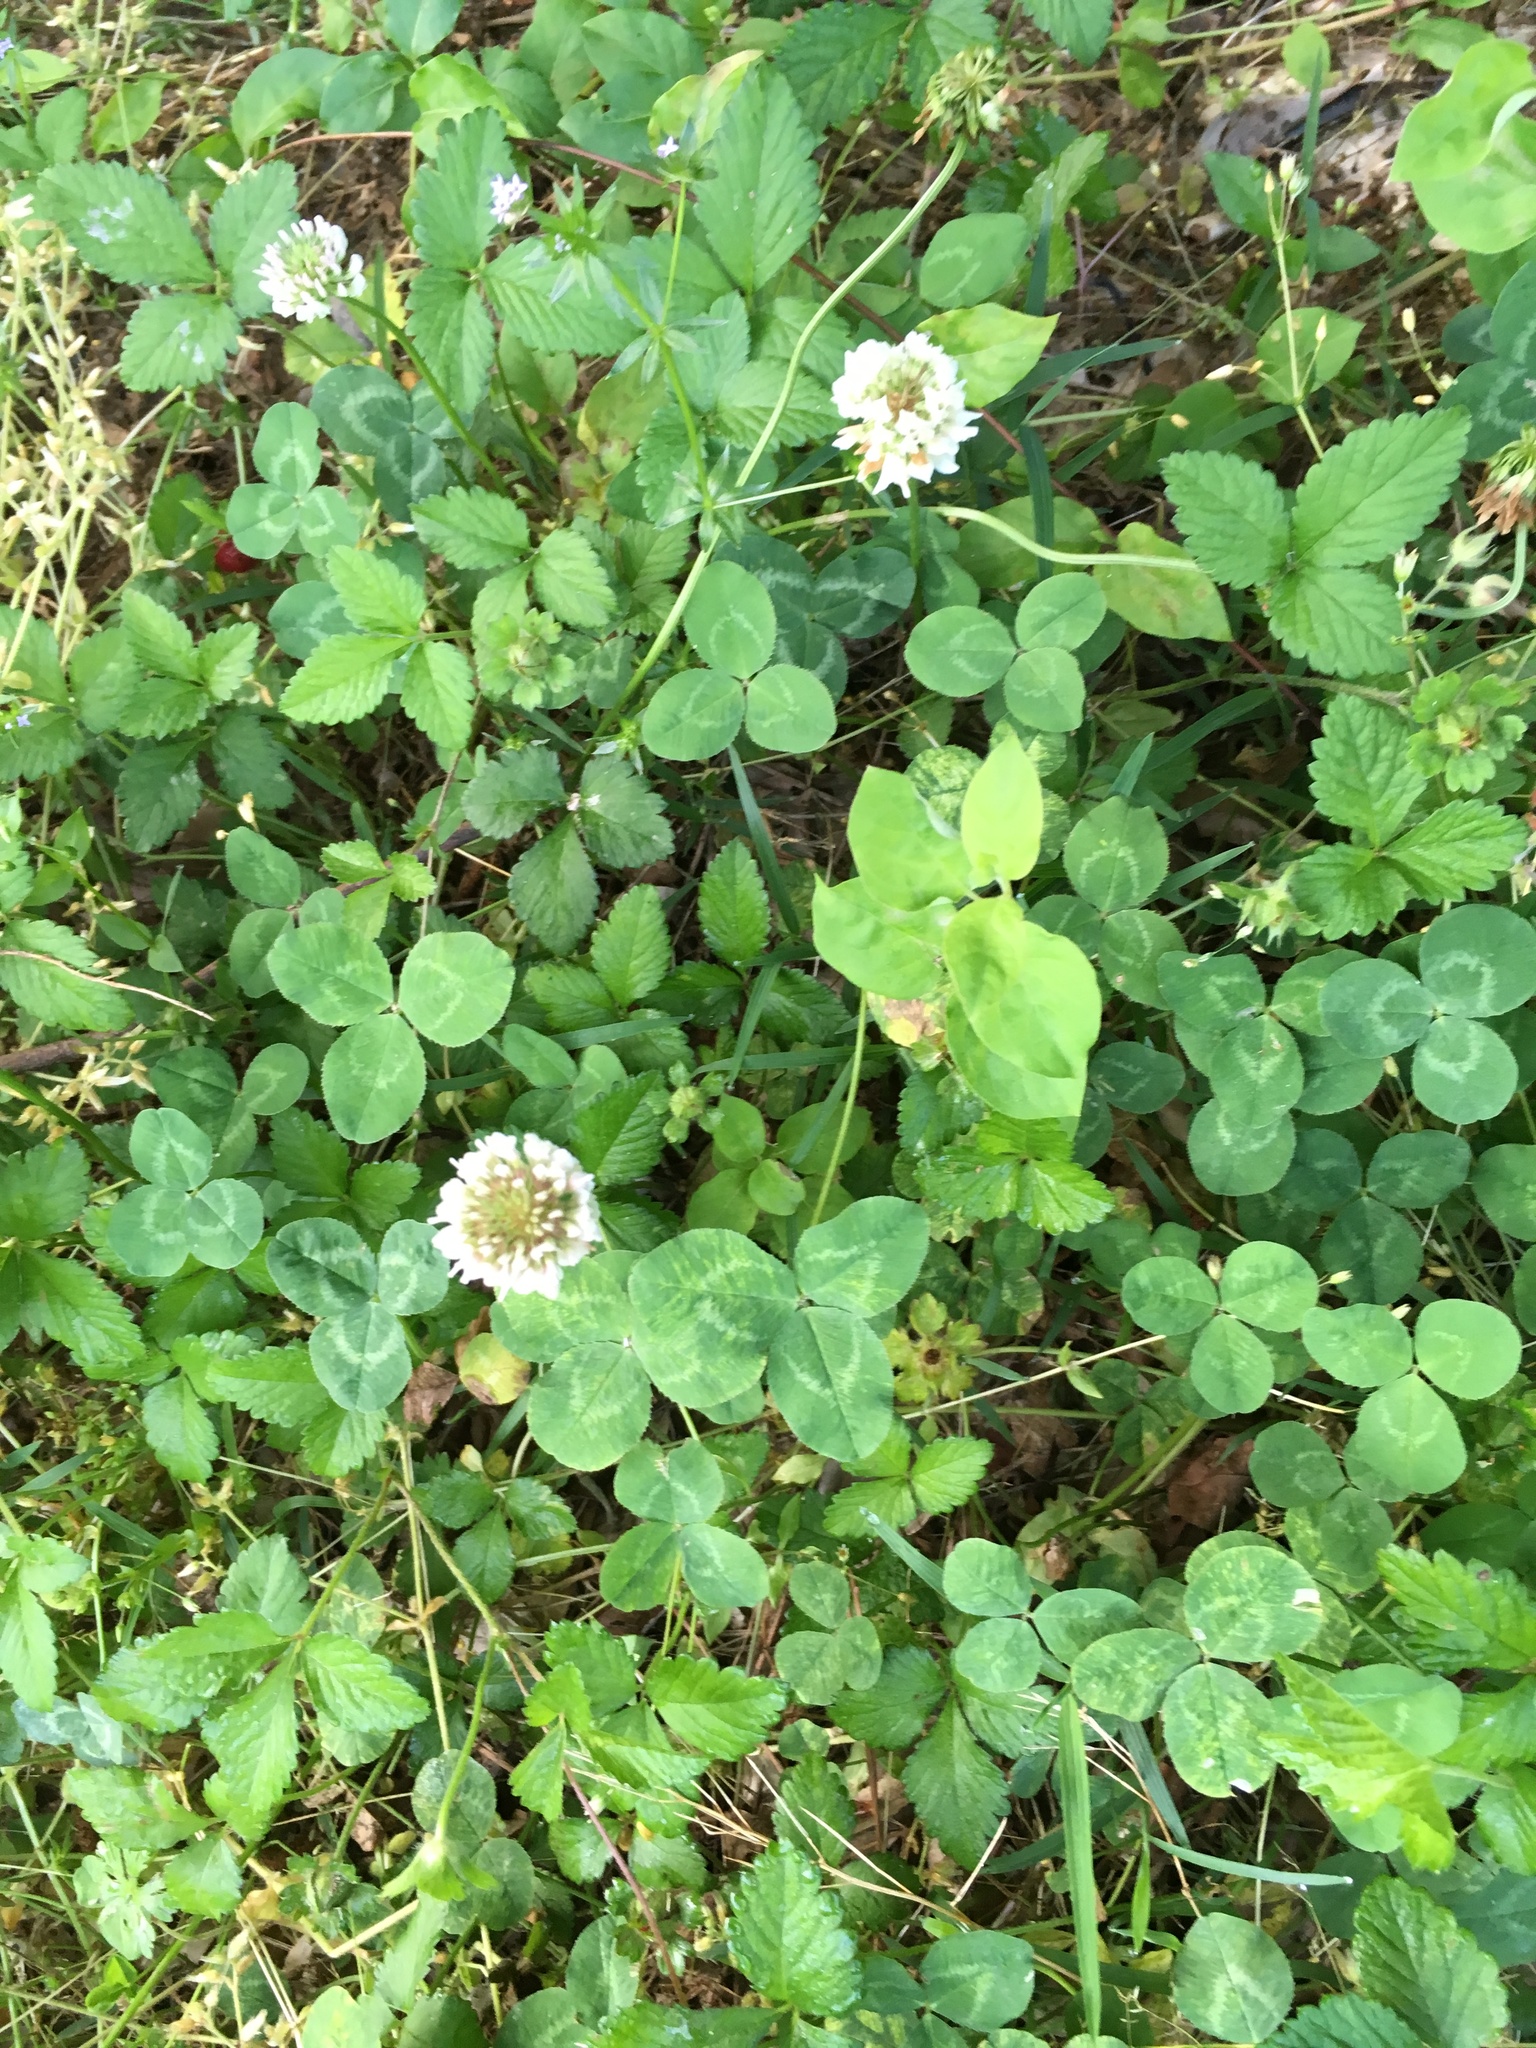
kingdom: Plantae
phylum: Tracheophyta
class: Magnoliopsida
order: Fabales
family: Fabaceae
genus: Trifolium
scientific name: Trifolium repens
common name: White clover
